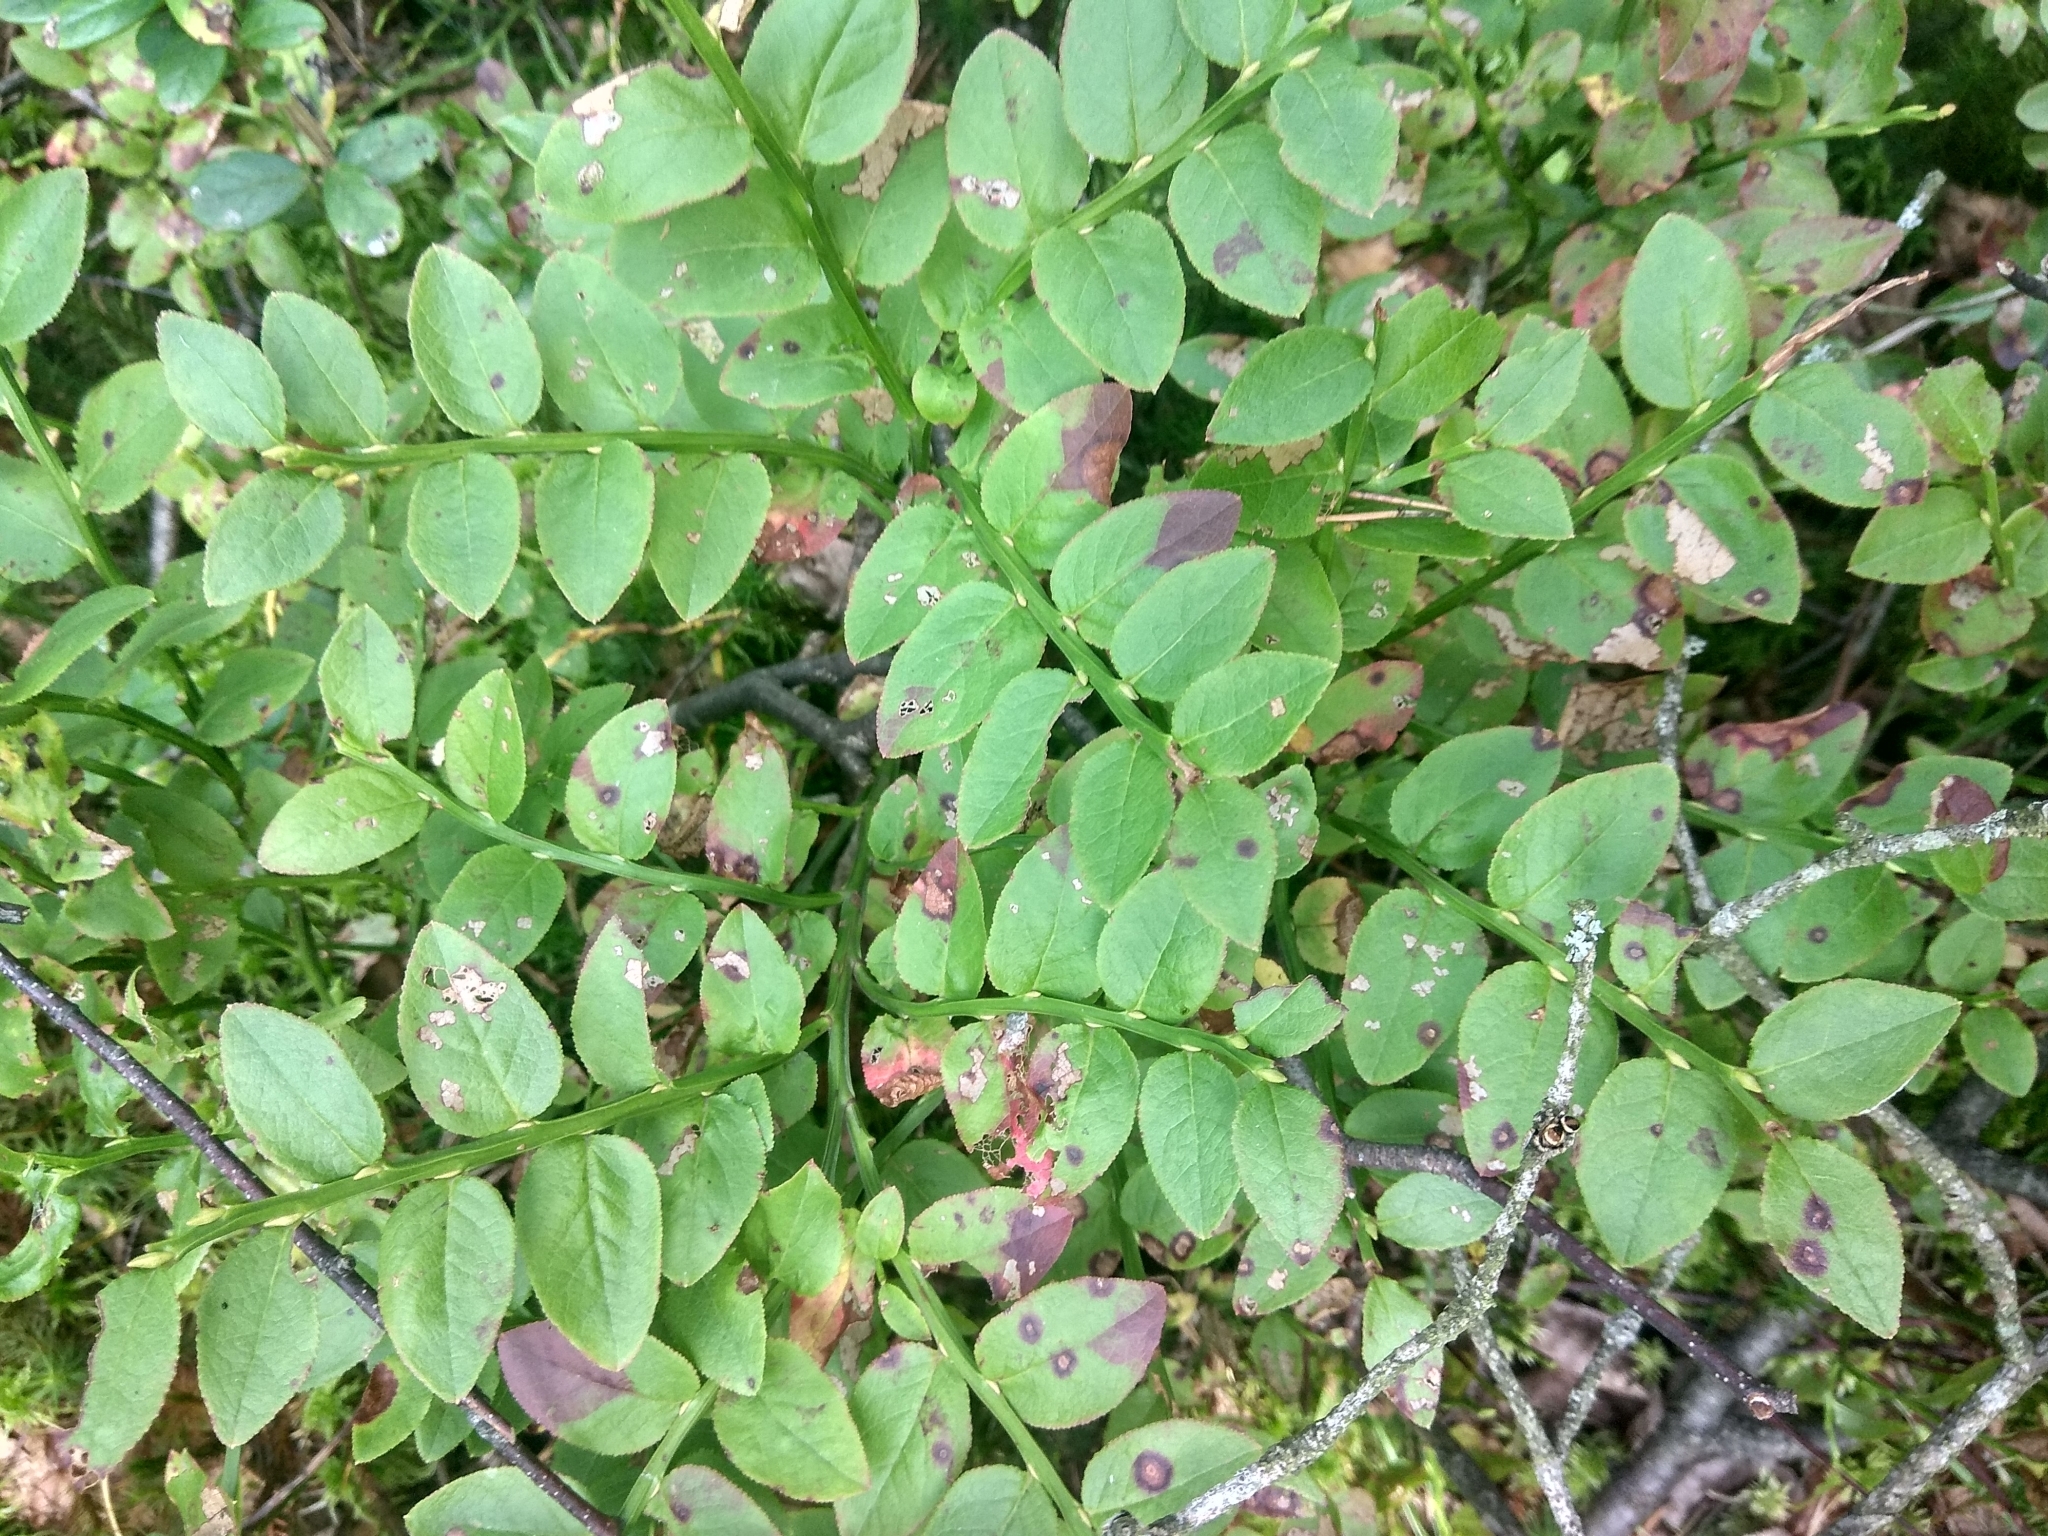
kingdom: Plantae
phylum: Tracheophyta
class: Magnoliopsida
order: Ericales
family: Ericaceae
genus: Vaccinium
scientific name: Vaccinium myrtillus
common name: Bilberry
